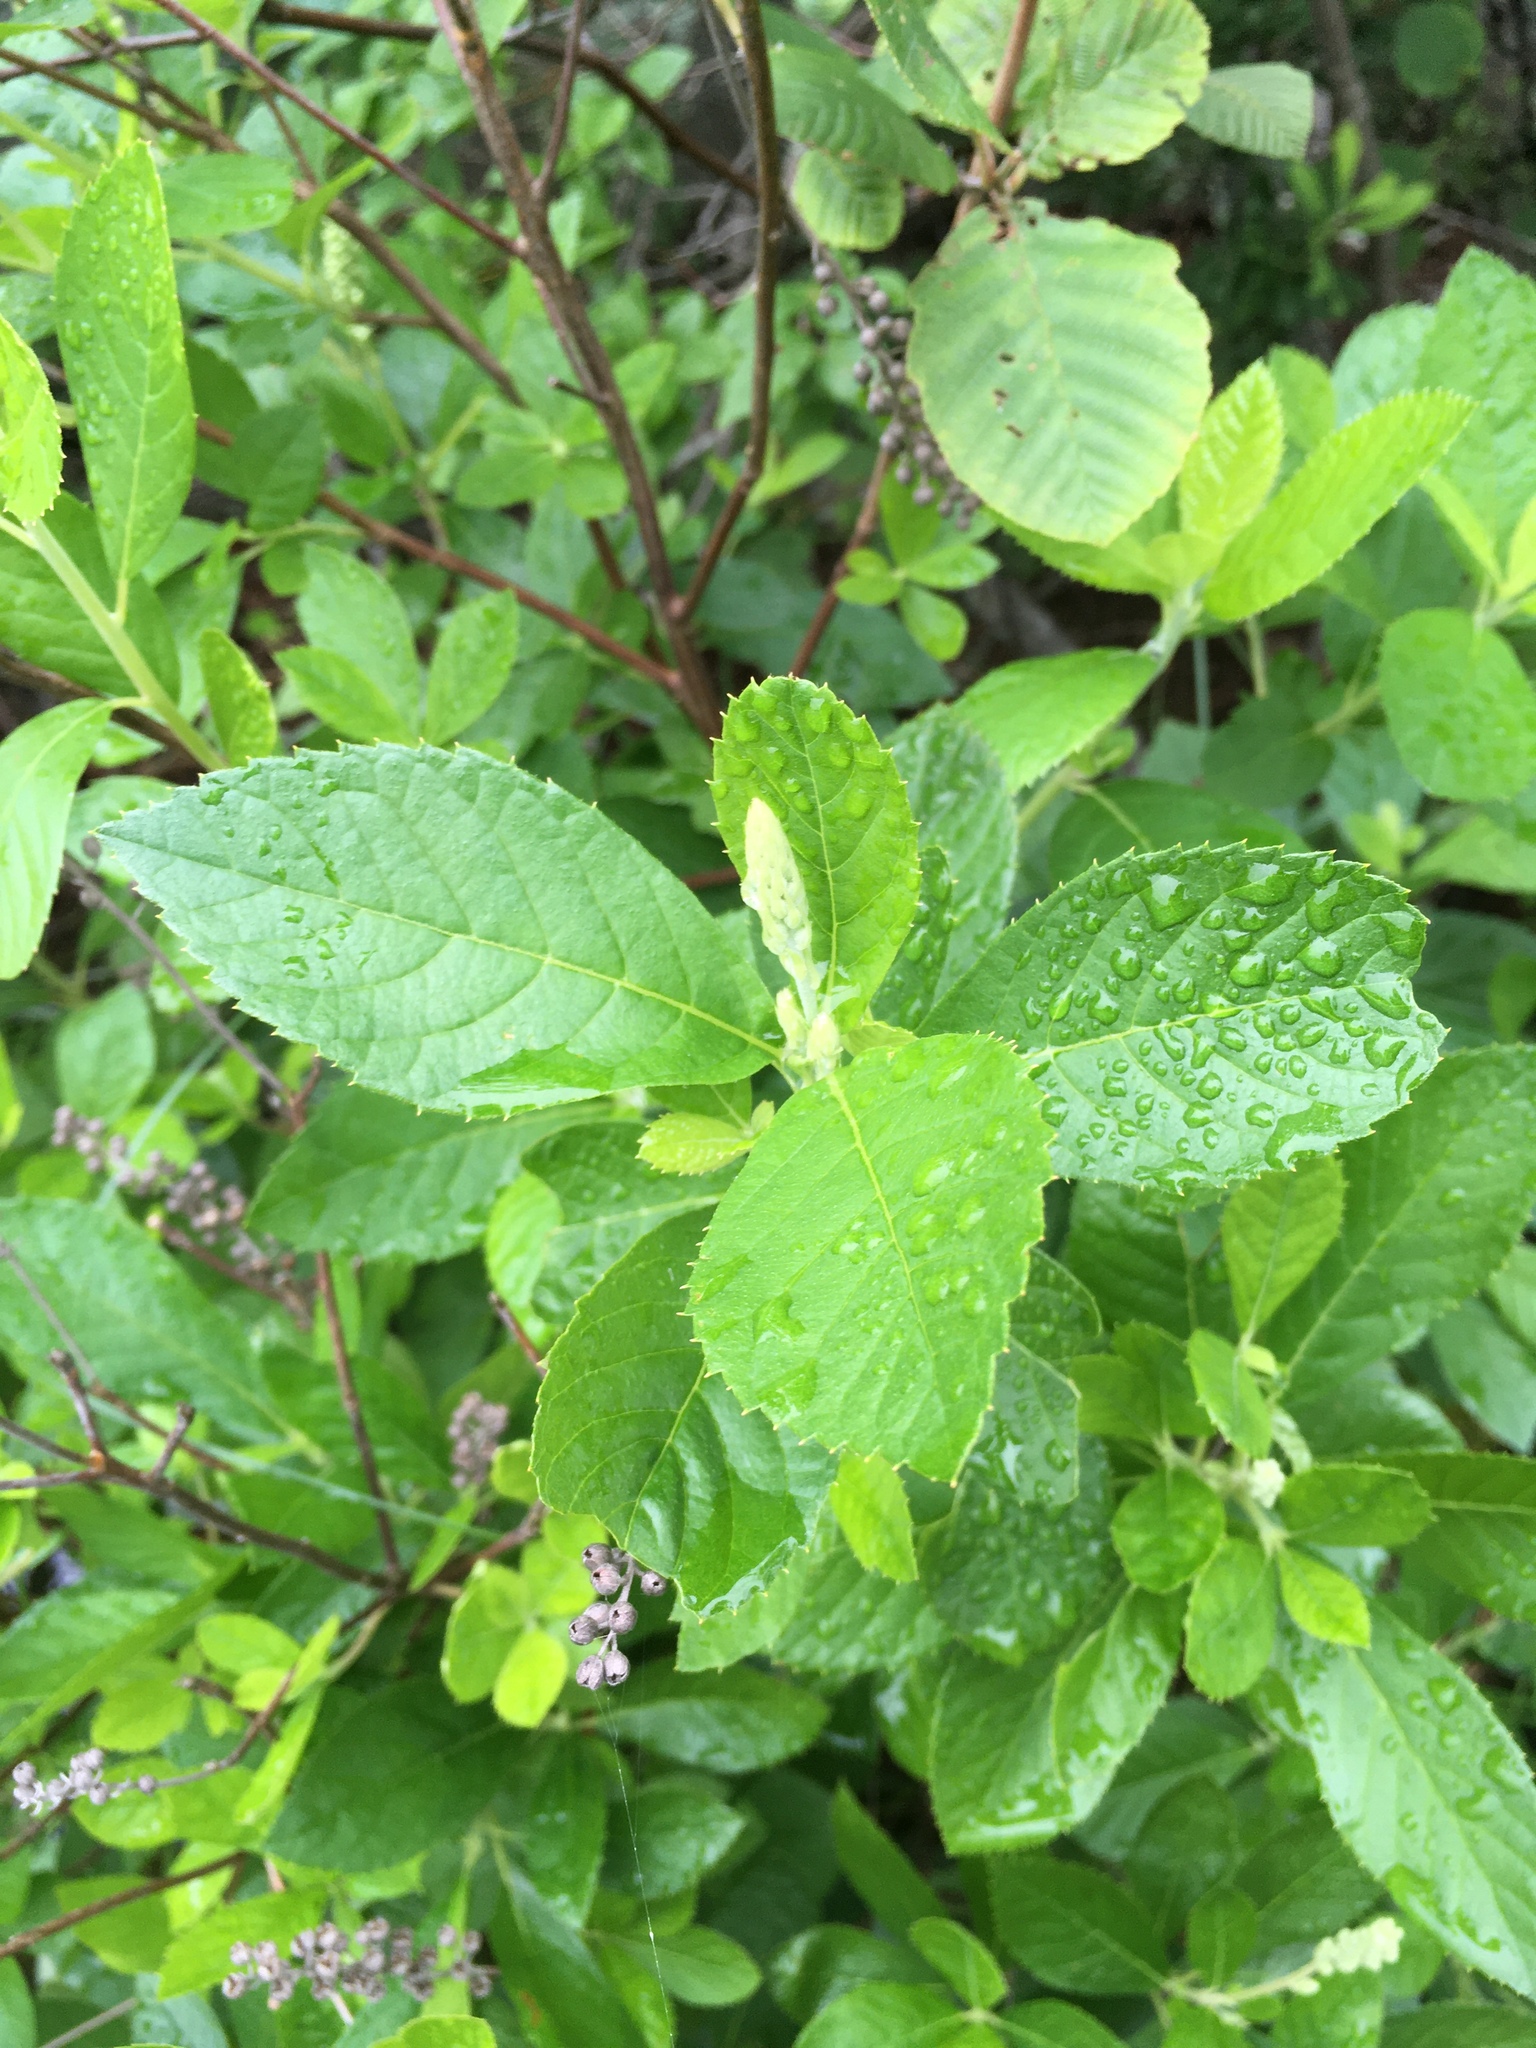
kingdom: Plantae
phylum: Tracheophyta
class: Magnoliopsida
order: Ericales
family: Clethraceae
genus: Clethra
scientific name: Clethra alnifolia
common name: Sweet pepperbush
